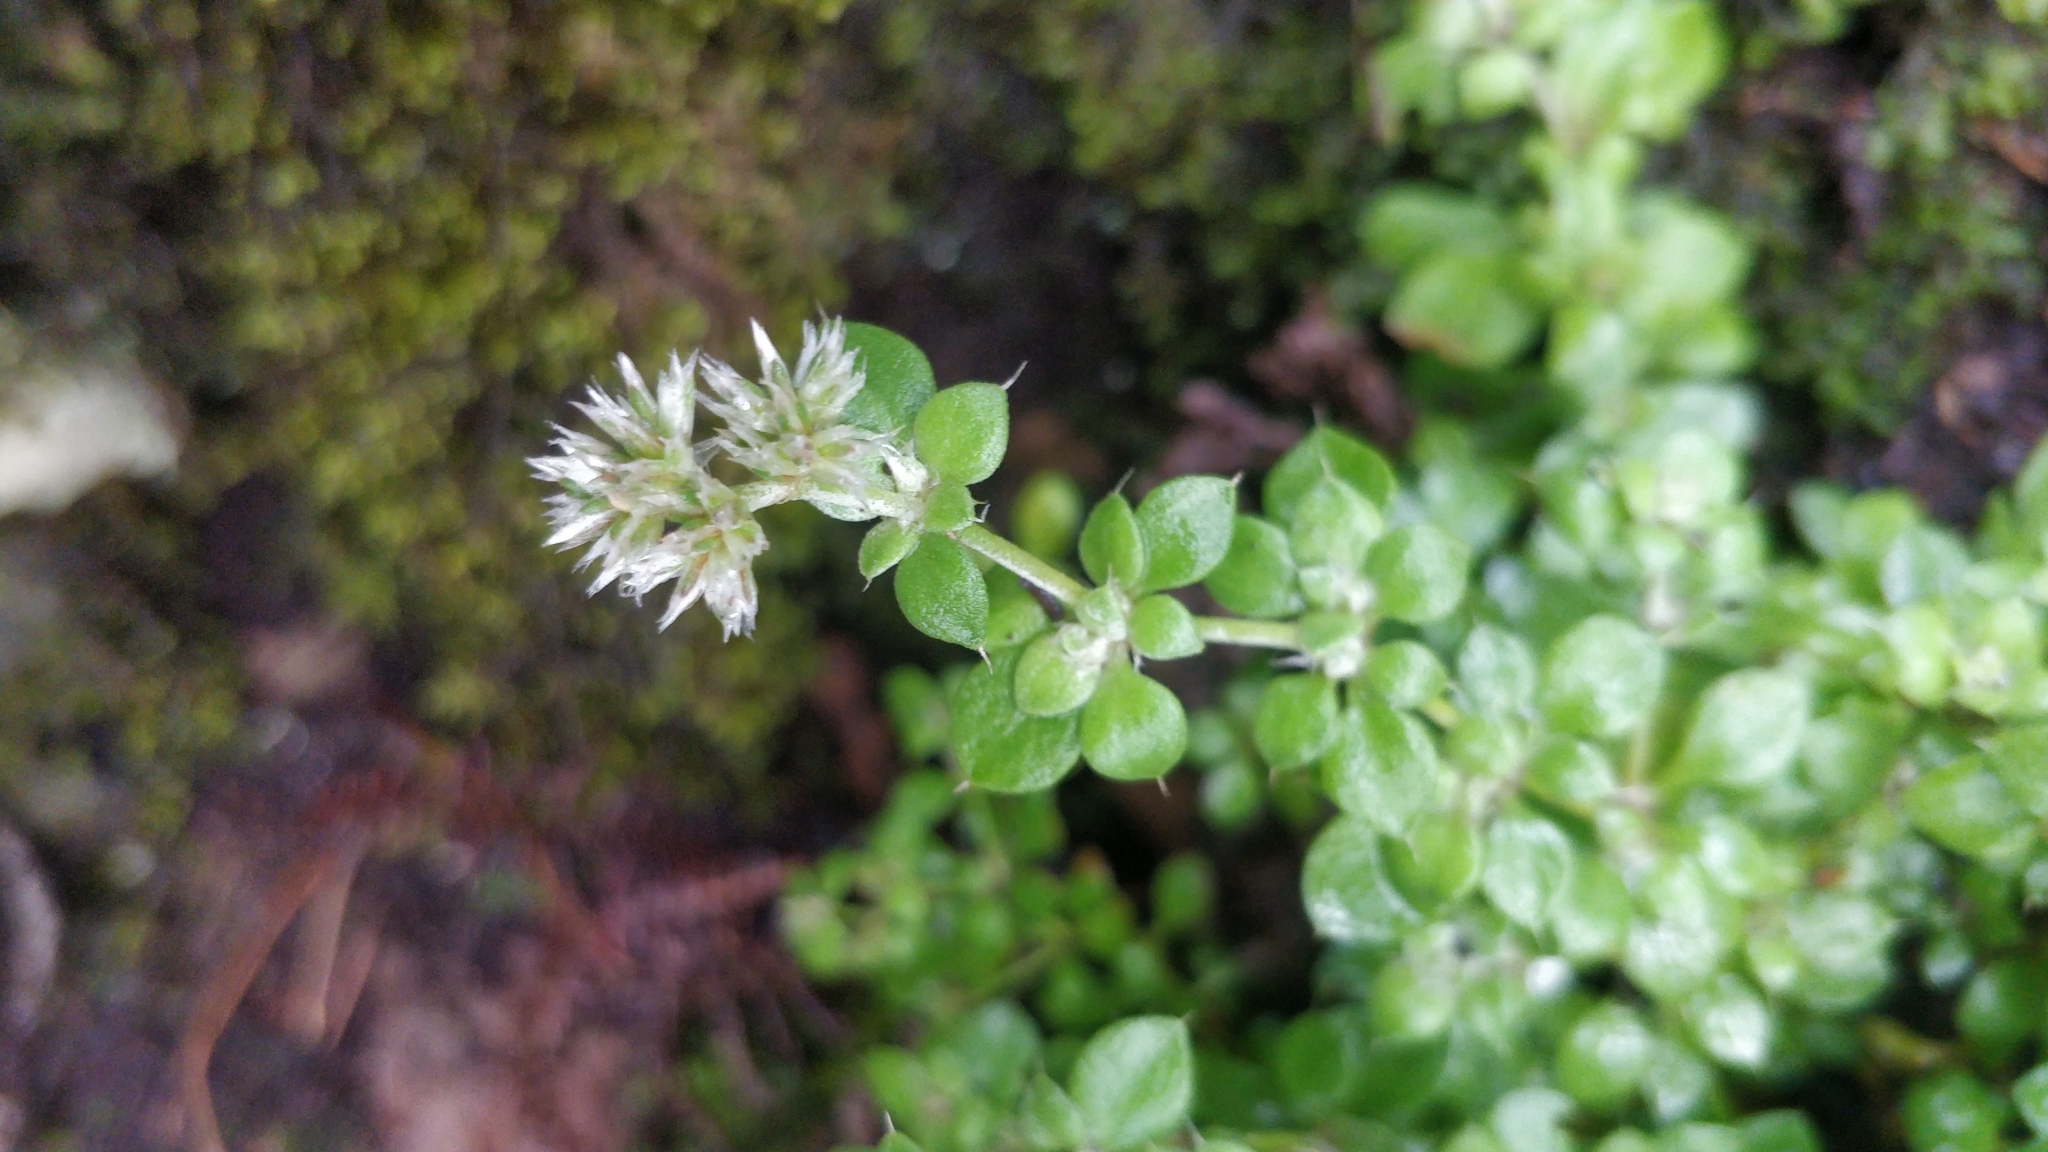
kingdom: Plantae
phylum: Tracheophyta
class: Magnoliopsida
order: Caryophyllales
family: Caryophyllaceae
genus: Polycarpaea
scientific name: Polycarpaea latifolia
